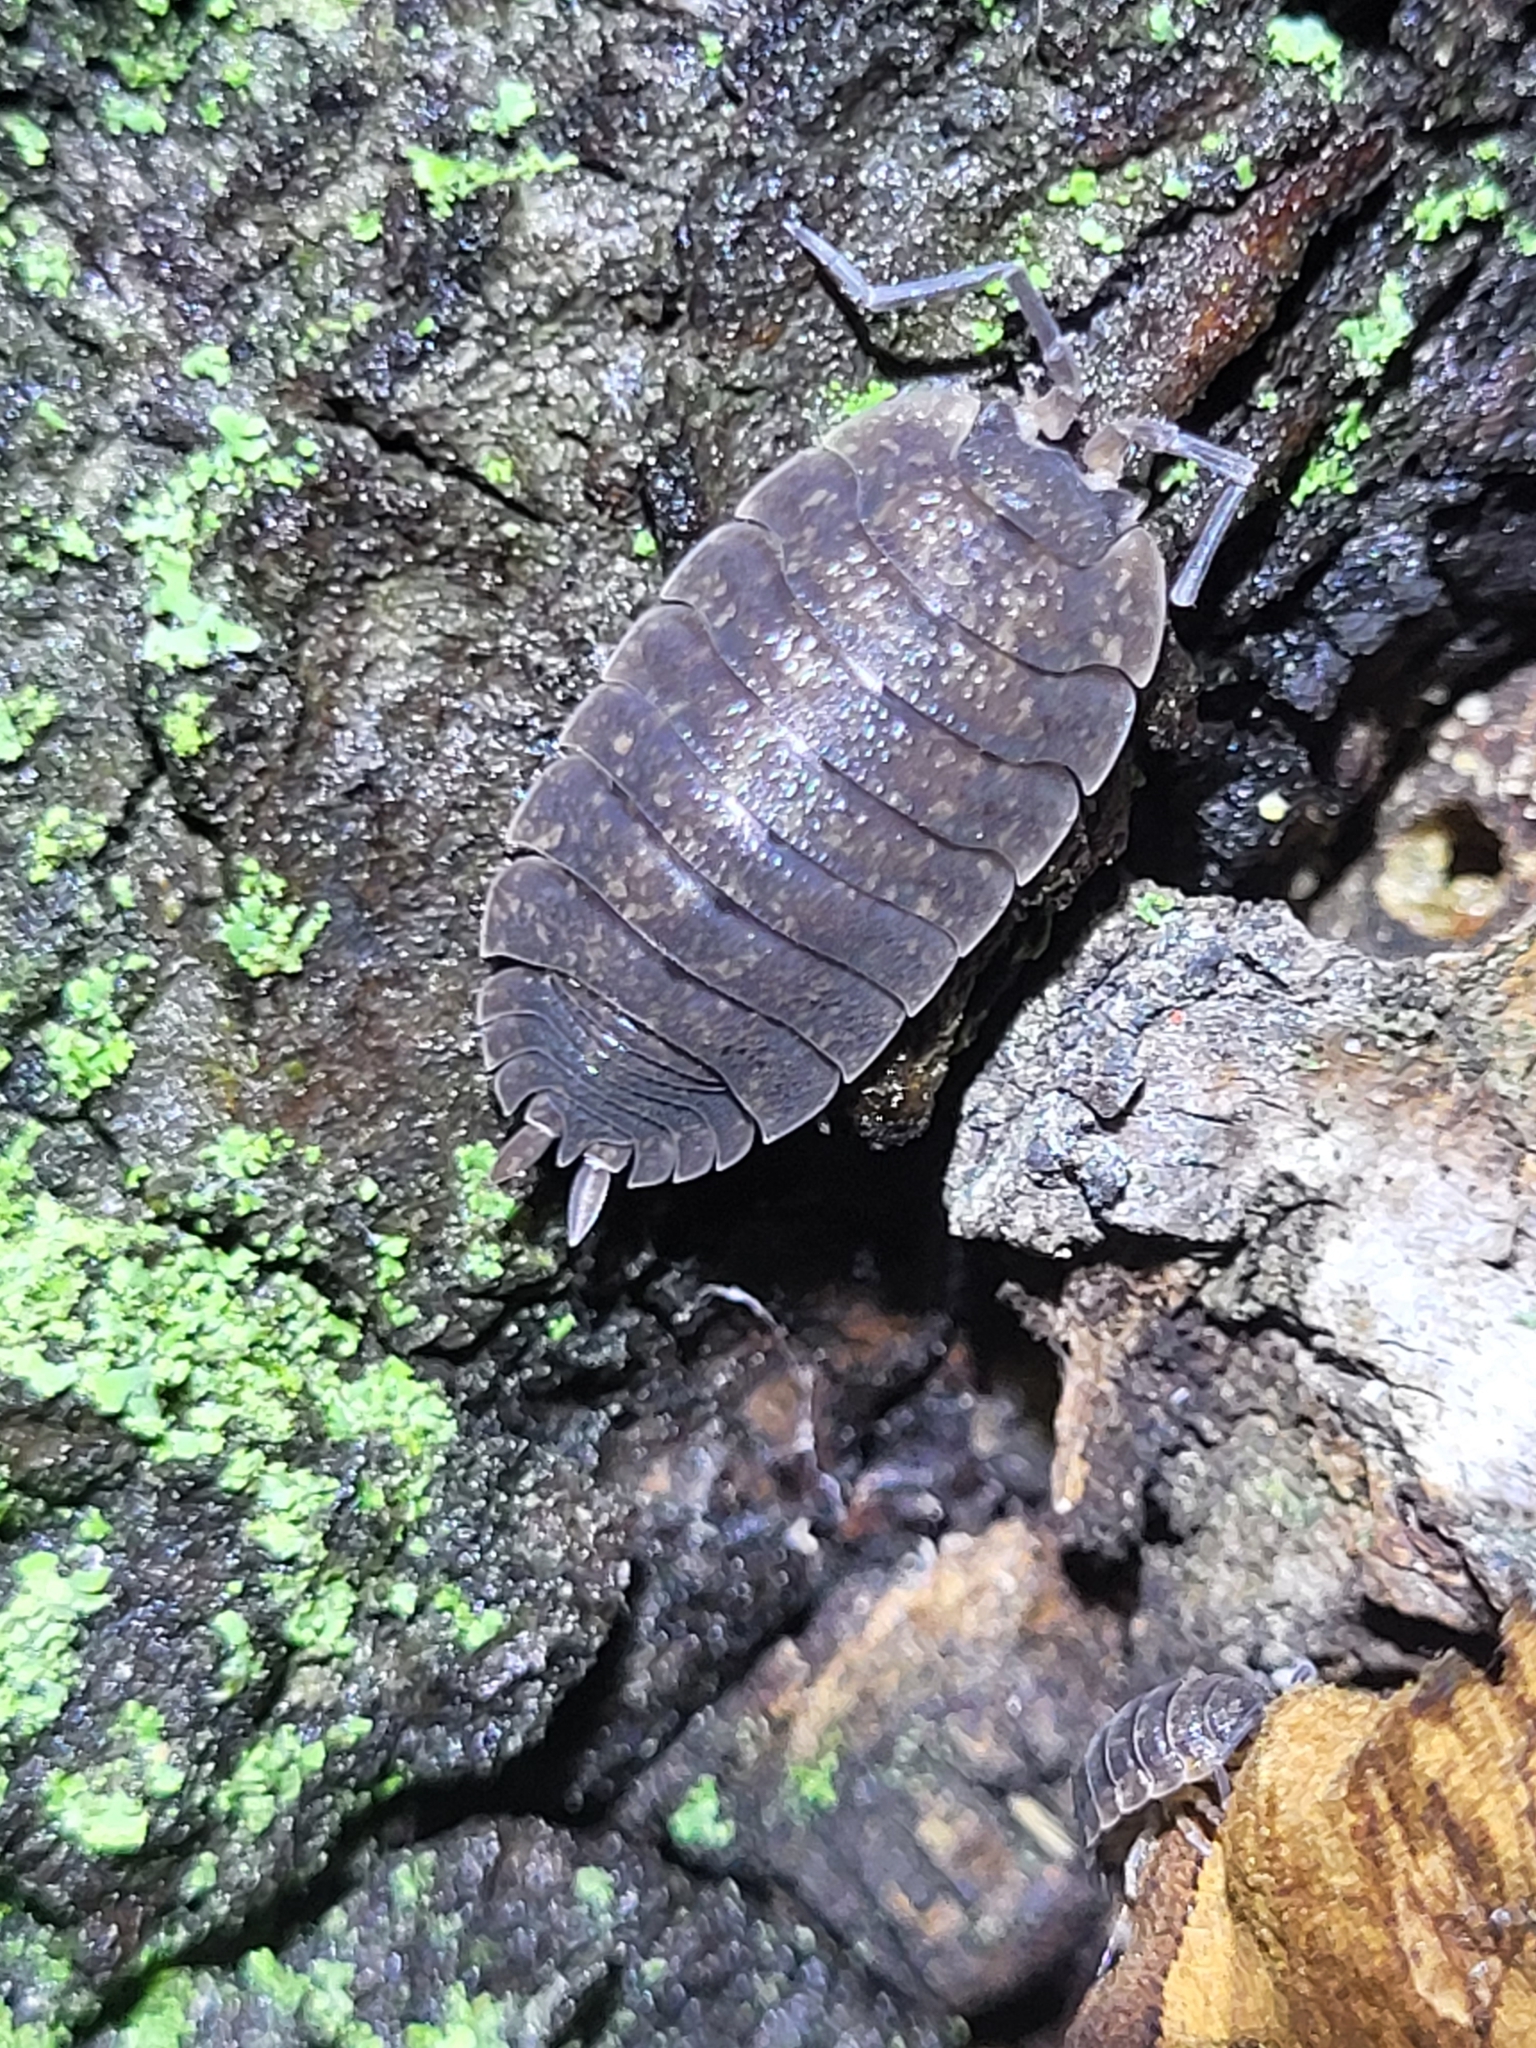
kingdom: Animalia
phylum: Arthropoda
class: Malacostraca
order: Isopoda
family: Porcellionidae
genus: Porcellio
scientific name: Porcellio scaber
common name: Common rough woodlouse
